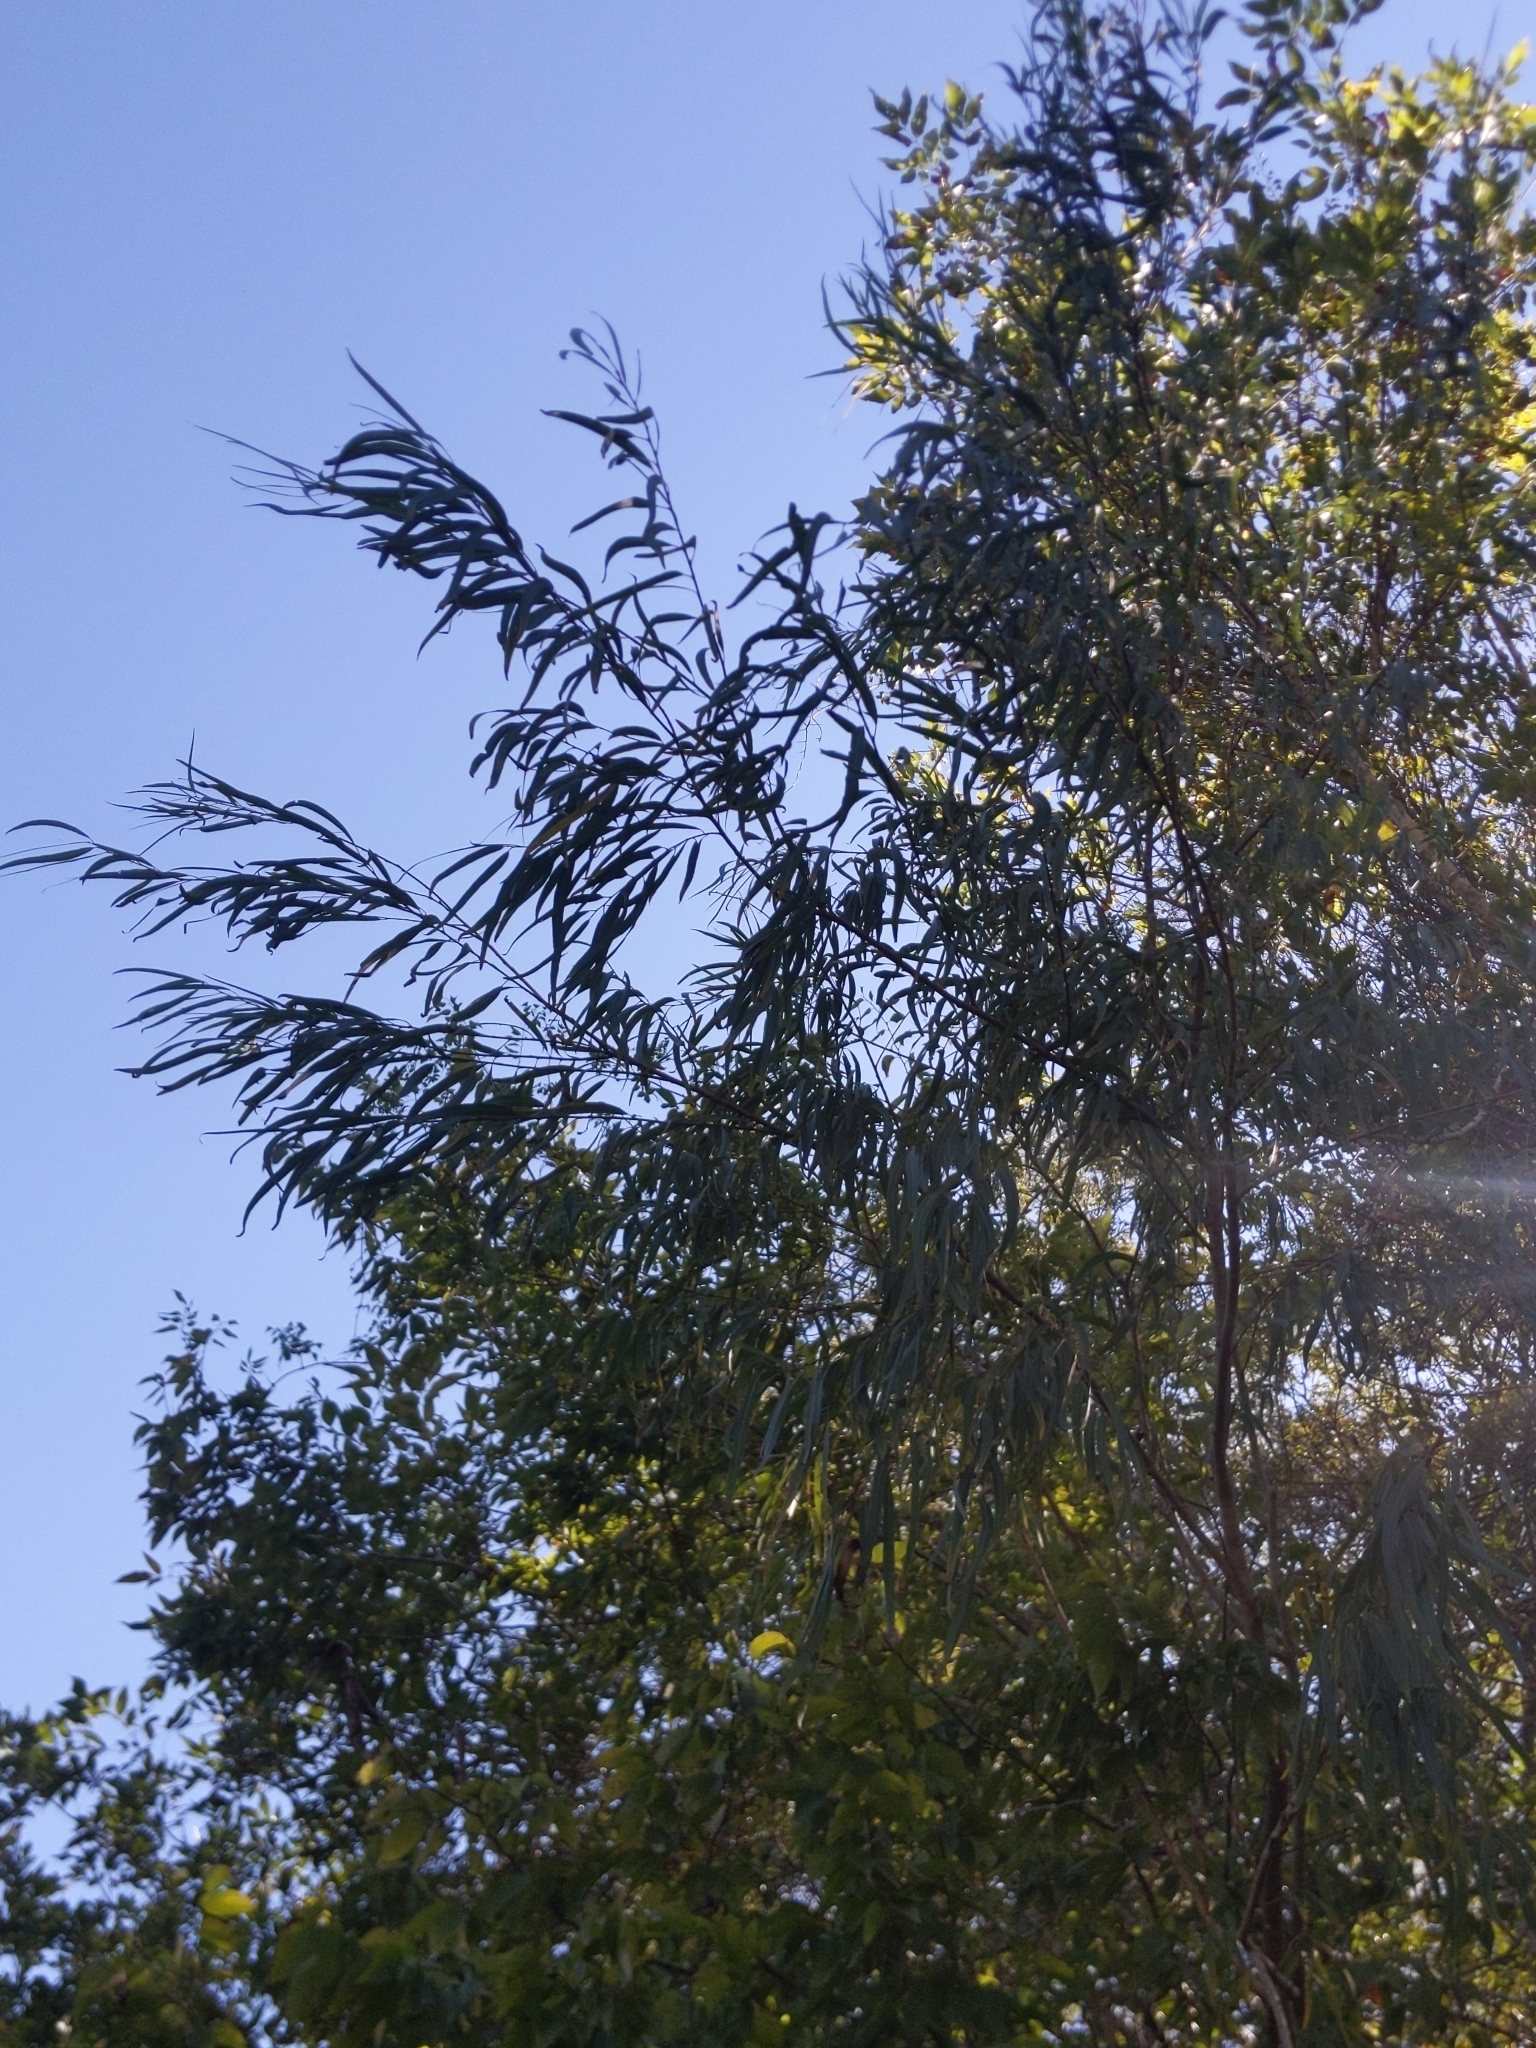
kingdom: Plantae
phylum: Tracheophyta
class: Magnoliopsida
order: Malpighiales
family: Salicaceae
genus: Salix
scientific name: Salix nigra
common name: Black willow
